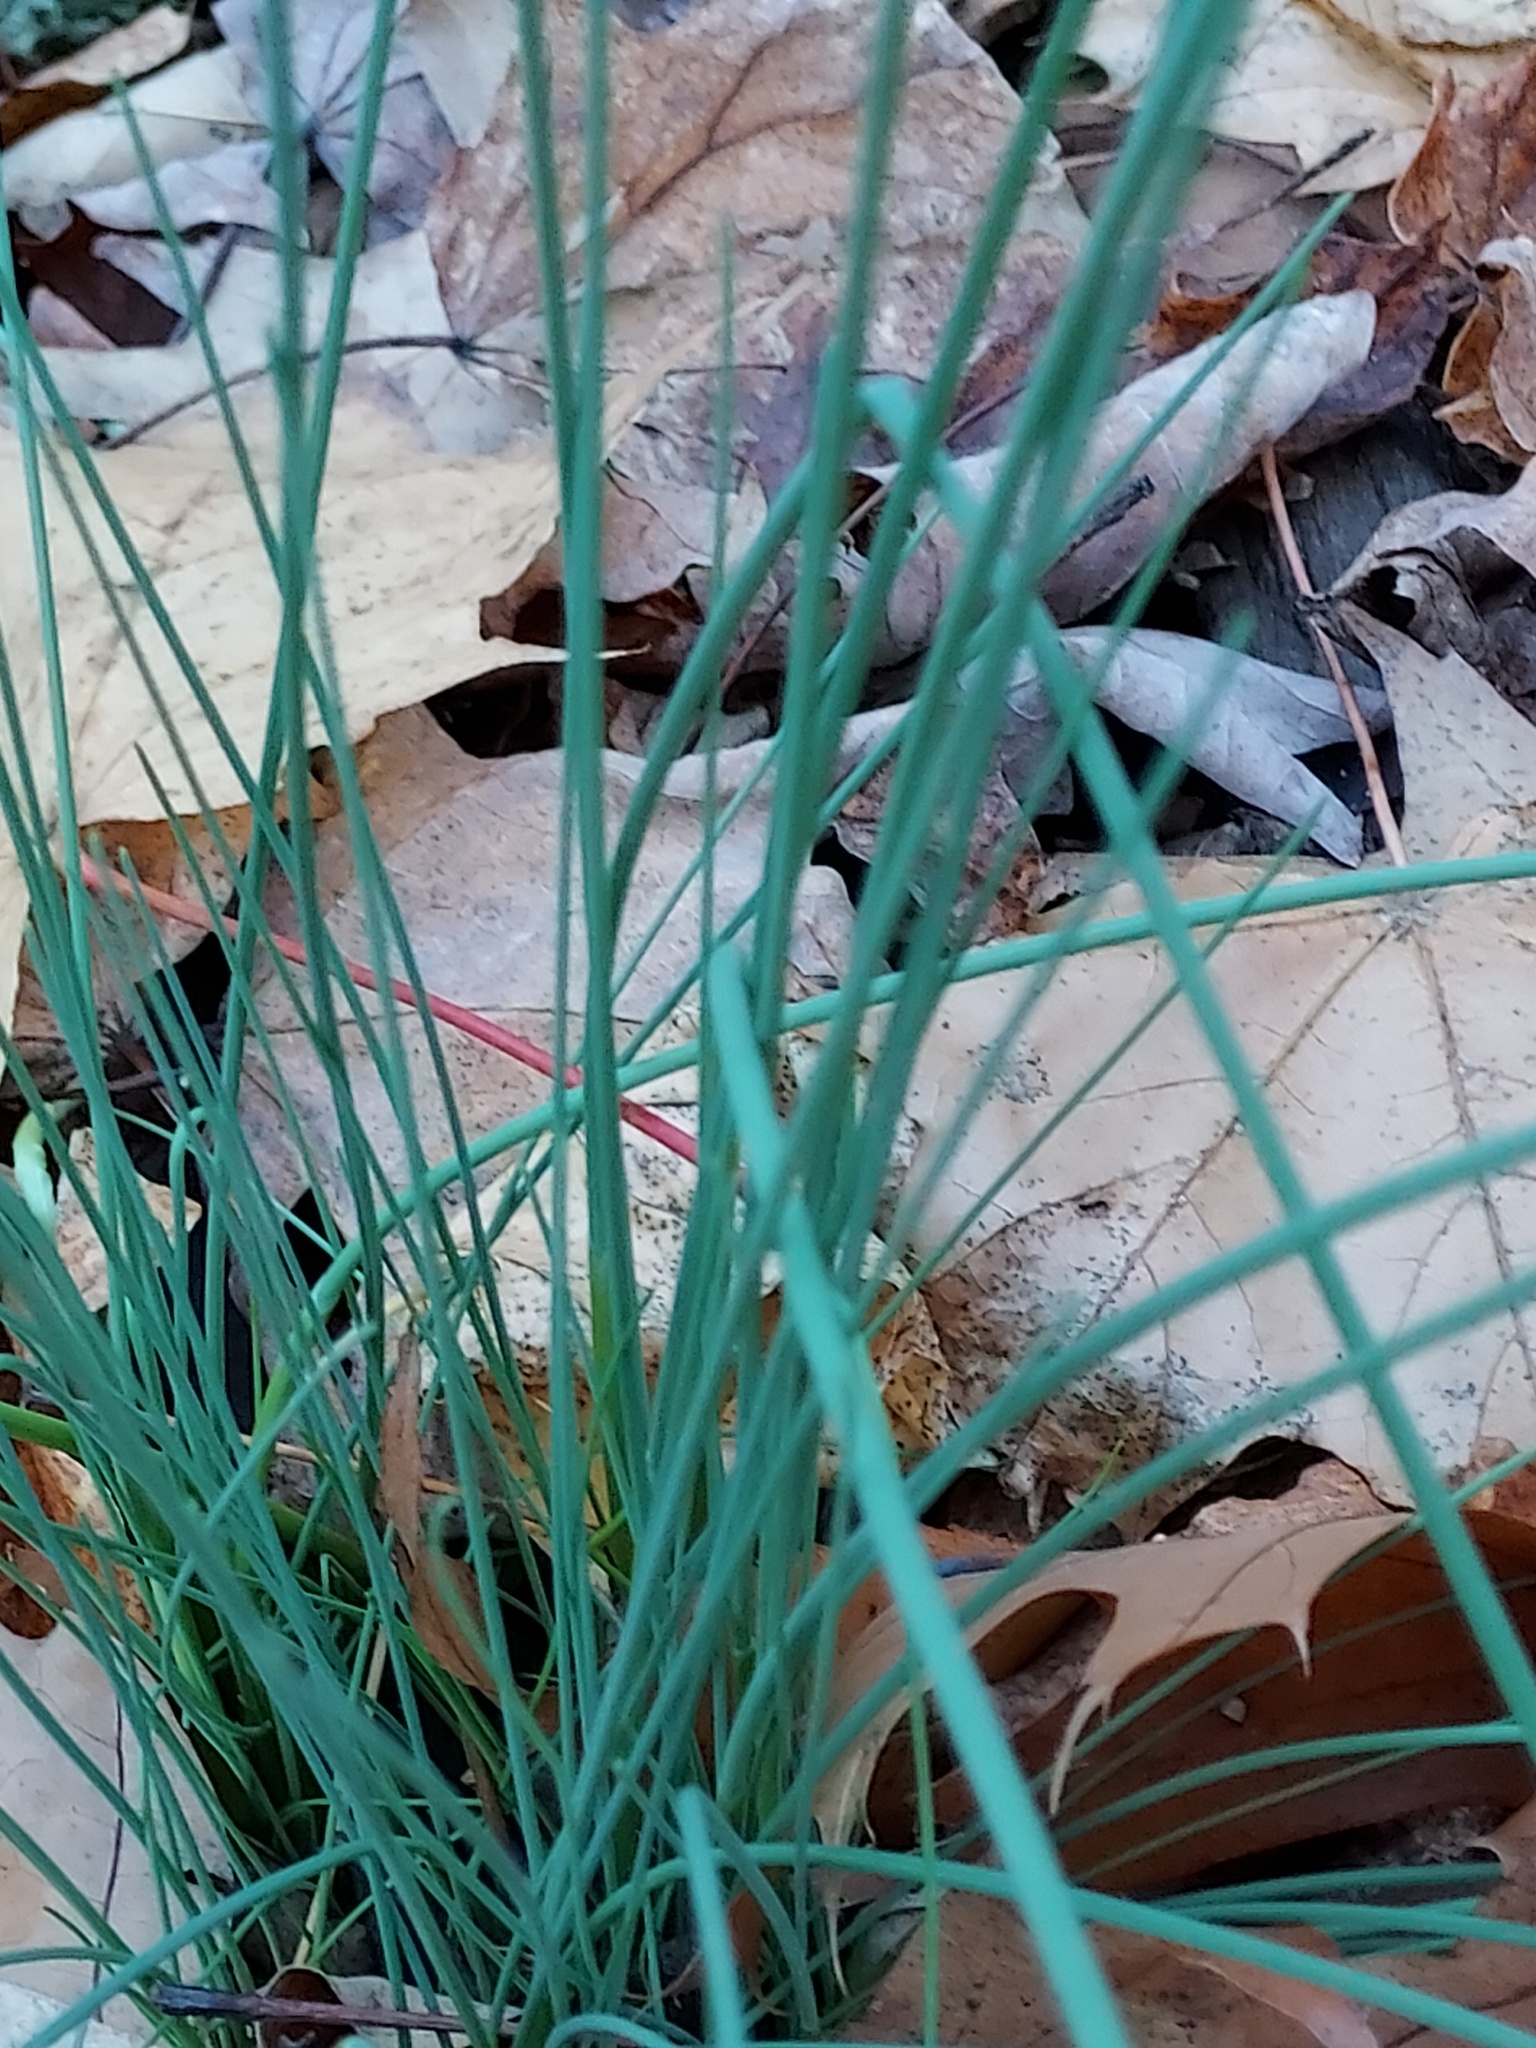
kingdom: Plantae
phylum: Tracheophyta
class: Liliopsida
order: Asparagales
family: Amaryllidaceae
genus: Allium
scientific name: Allium vineale
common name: Crow garlic
